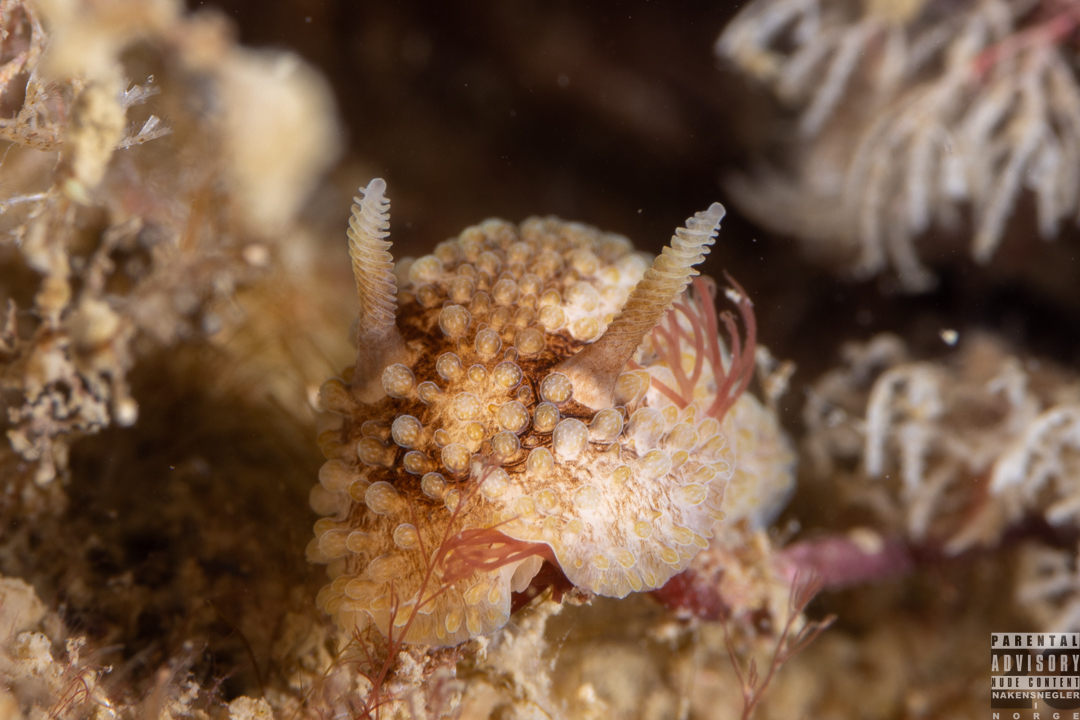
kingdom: Animalia
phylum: Mollusca
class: Gastropoda
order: Nudibranchia
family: Onchidorididae
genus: Onchidoris
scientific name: Onchidoris bilamellata
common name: Barnacle-eating onchidoris
